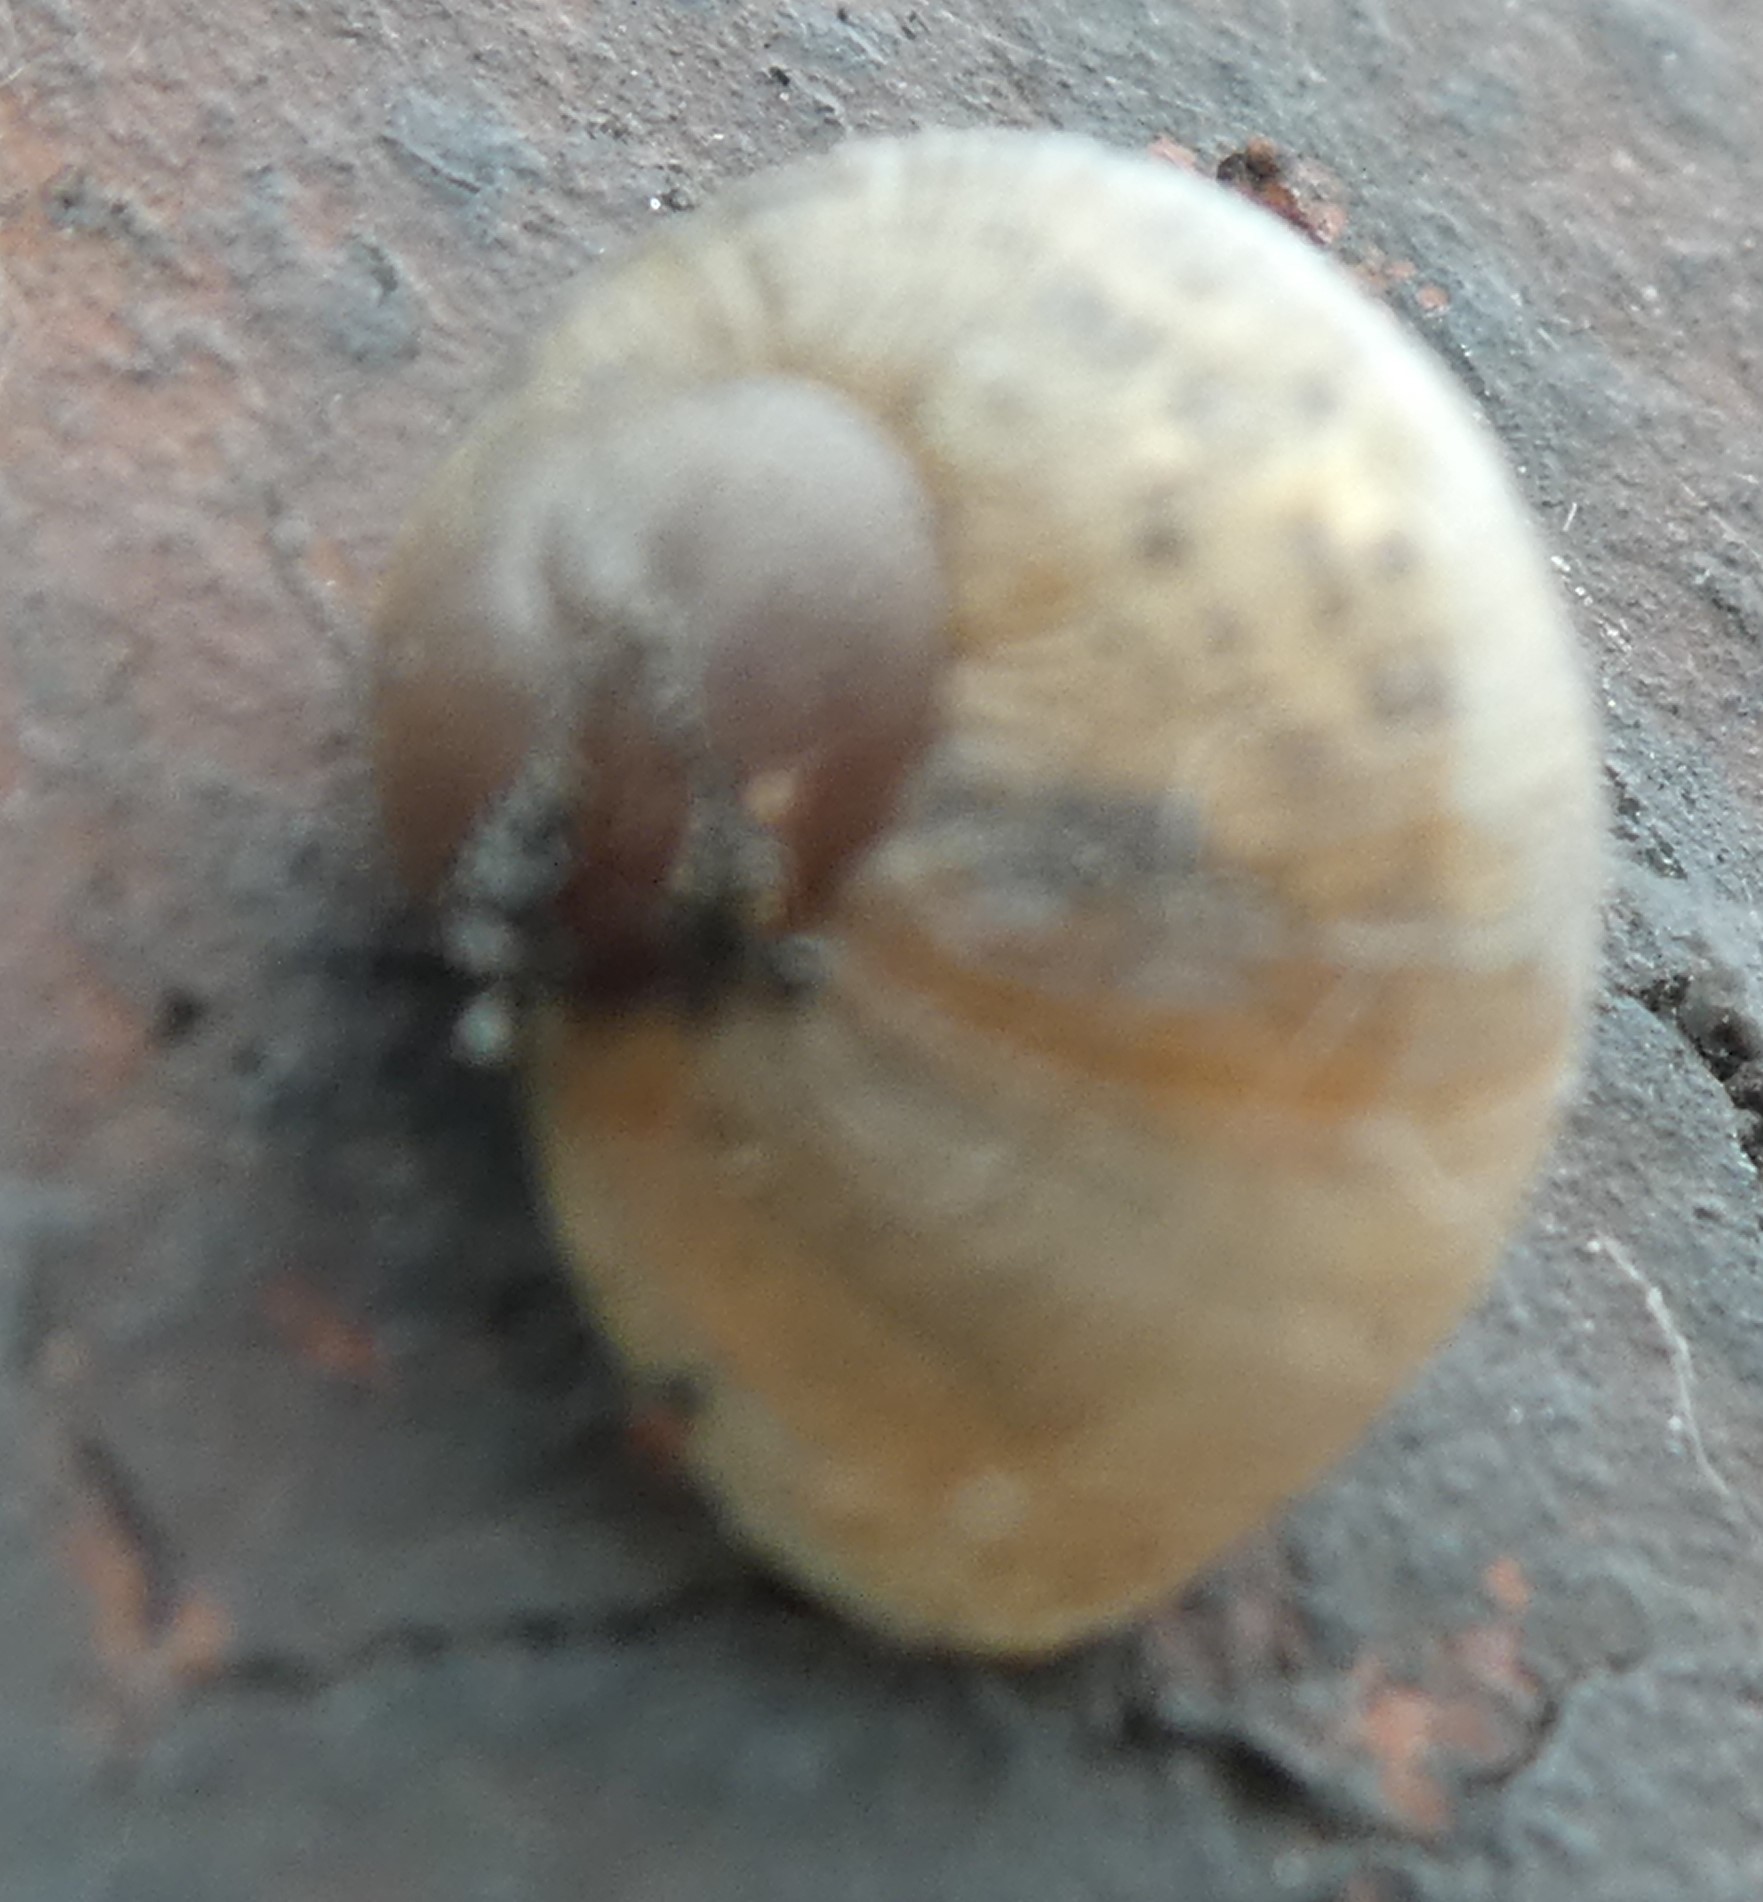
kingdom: Animalia
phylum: Mollusca
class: Gastropoda
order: Stylommatophora
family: Helicidae
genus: Cornu
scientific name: Cornu aspersum
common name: Brown garden snail
